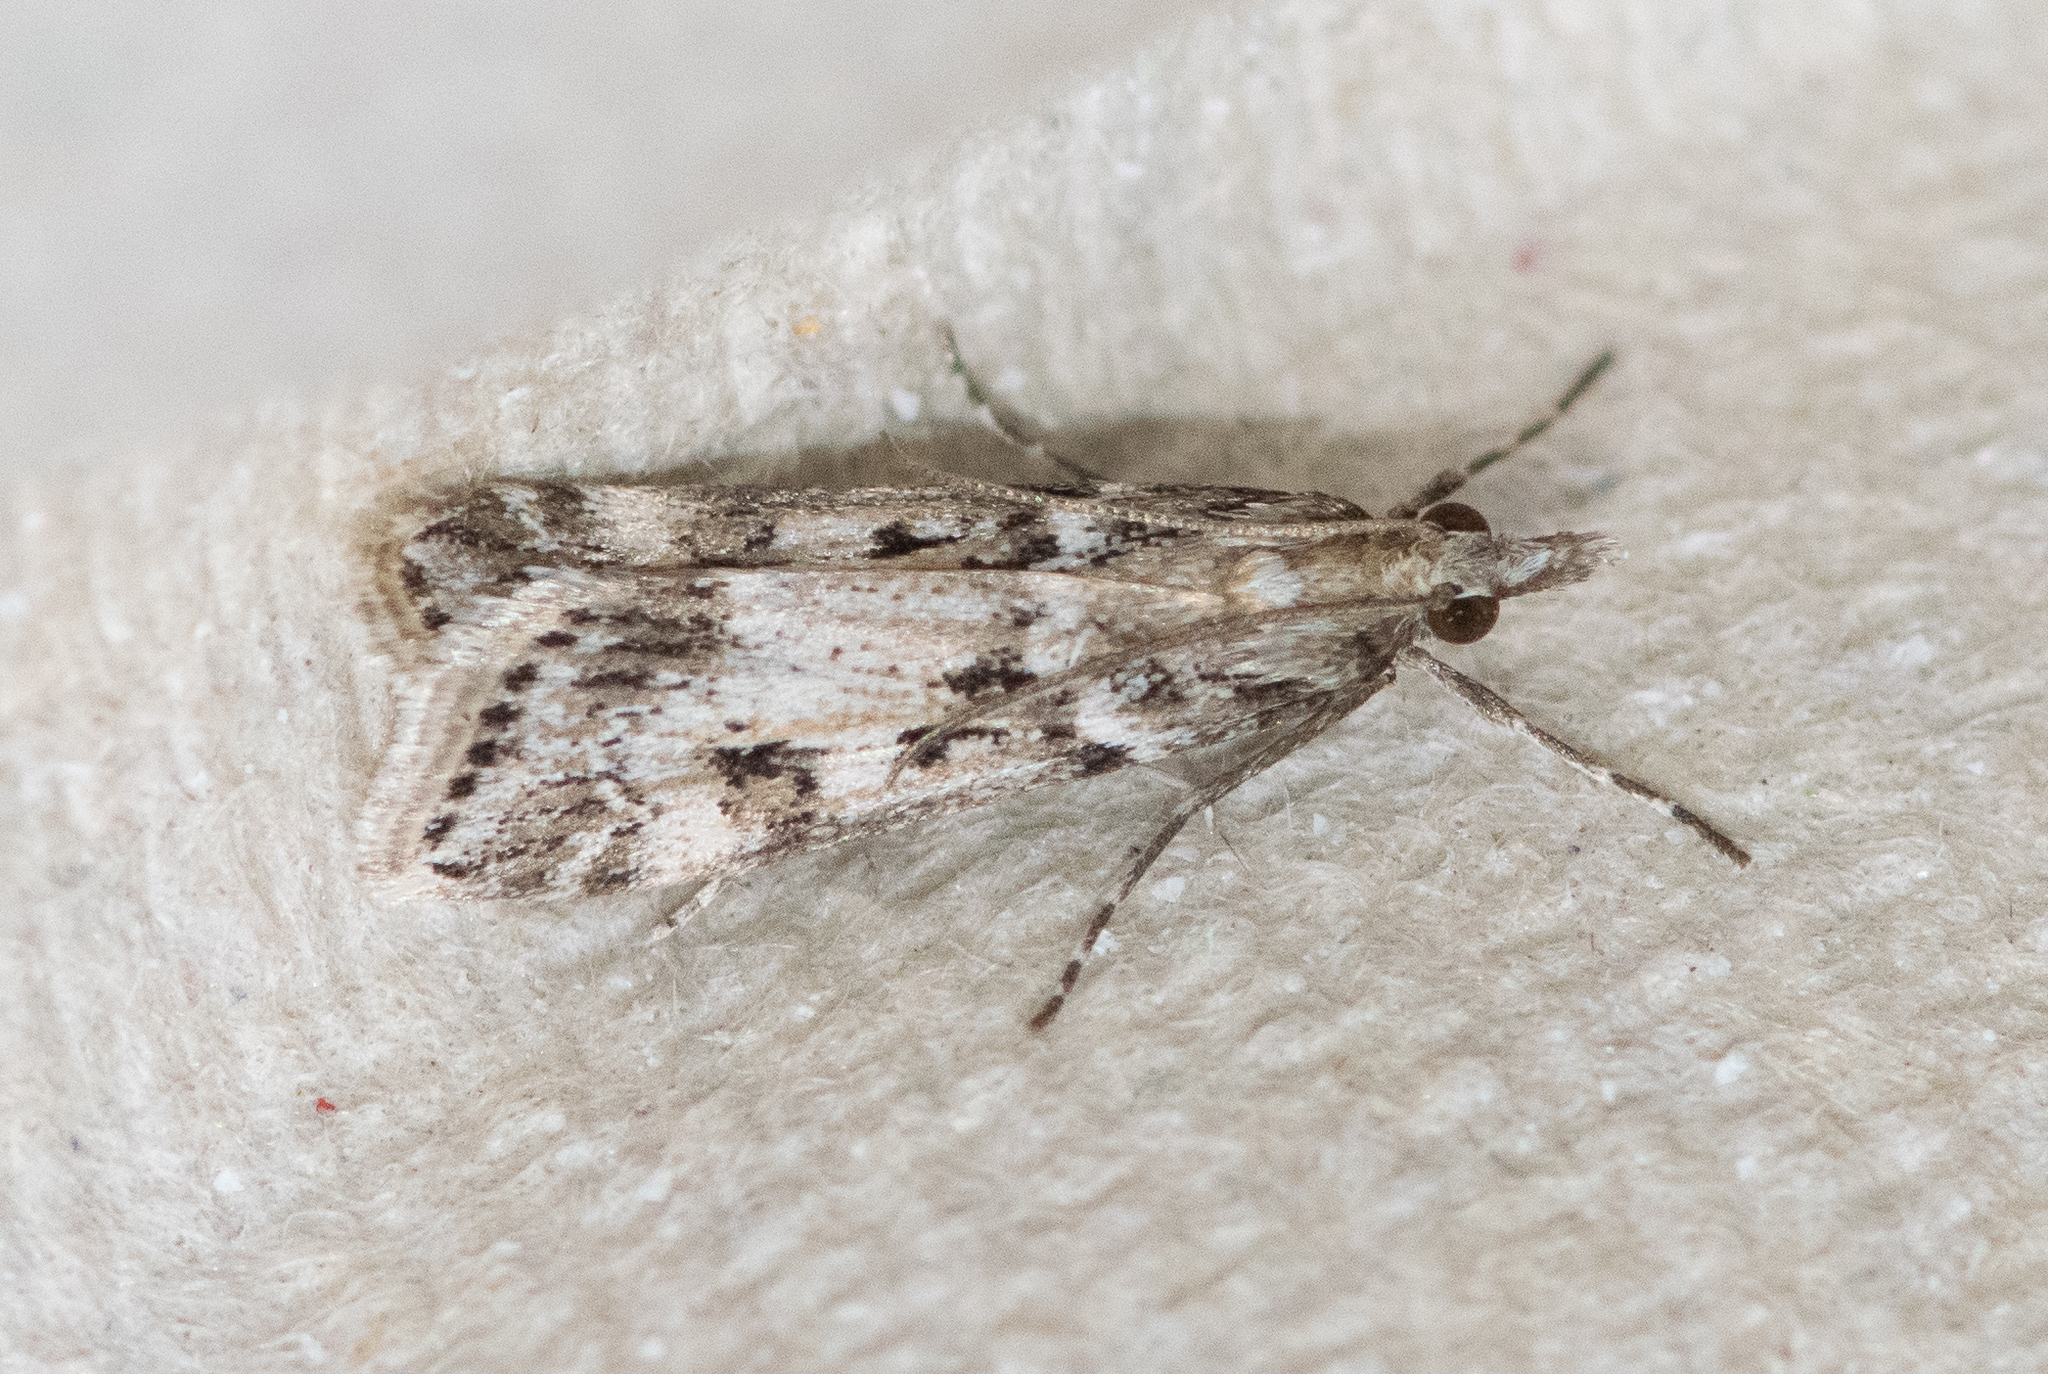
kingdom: Animalia
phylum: Arthropoda
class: Insecta
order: Lepidoptera
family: Crambidae
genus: Eudonia
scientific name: Eudonia angustea
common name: Narrow-winged grey
